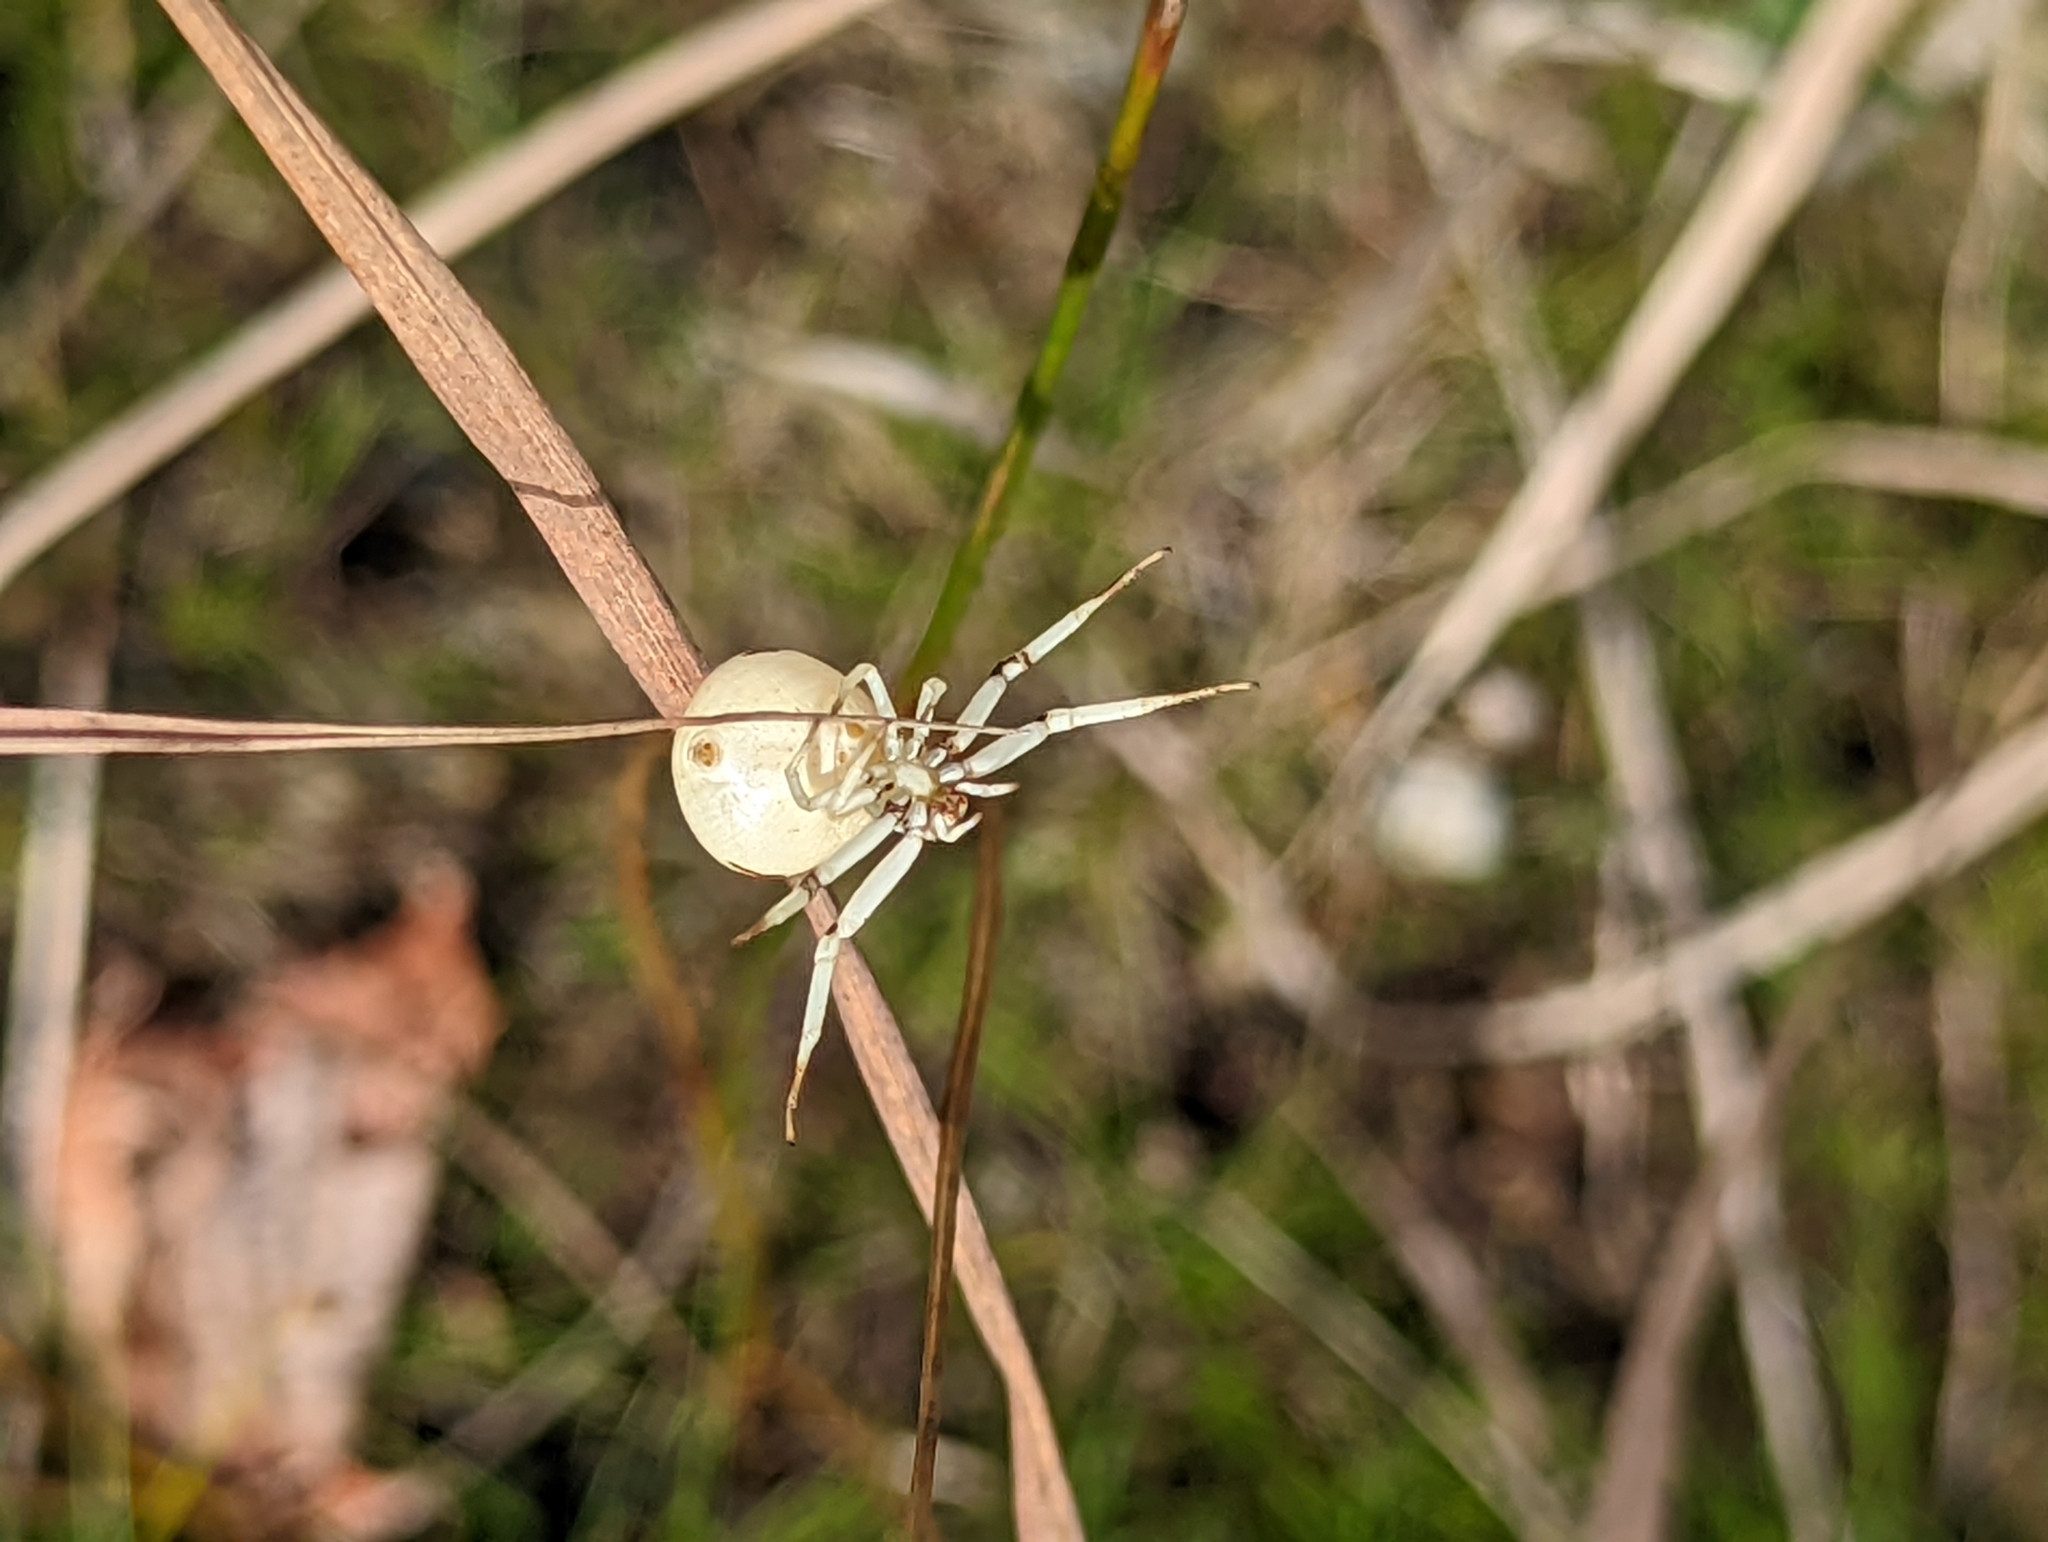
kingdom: Animalia
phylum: Arthropoda
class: Arachnida
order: Araneae
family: Thomisidae
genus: Misumenoides
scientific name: Misumenoides formosipes
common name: White-banded crab spider
